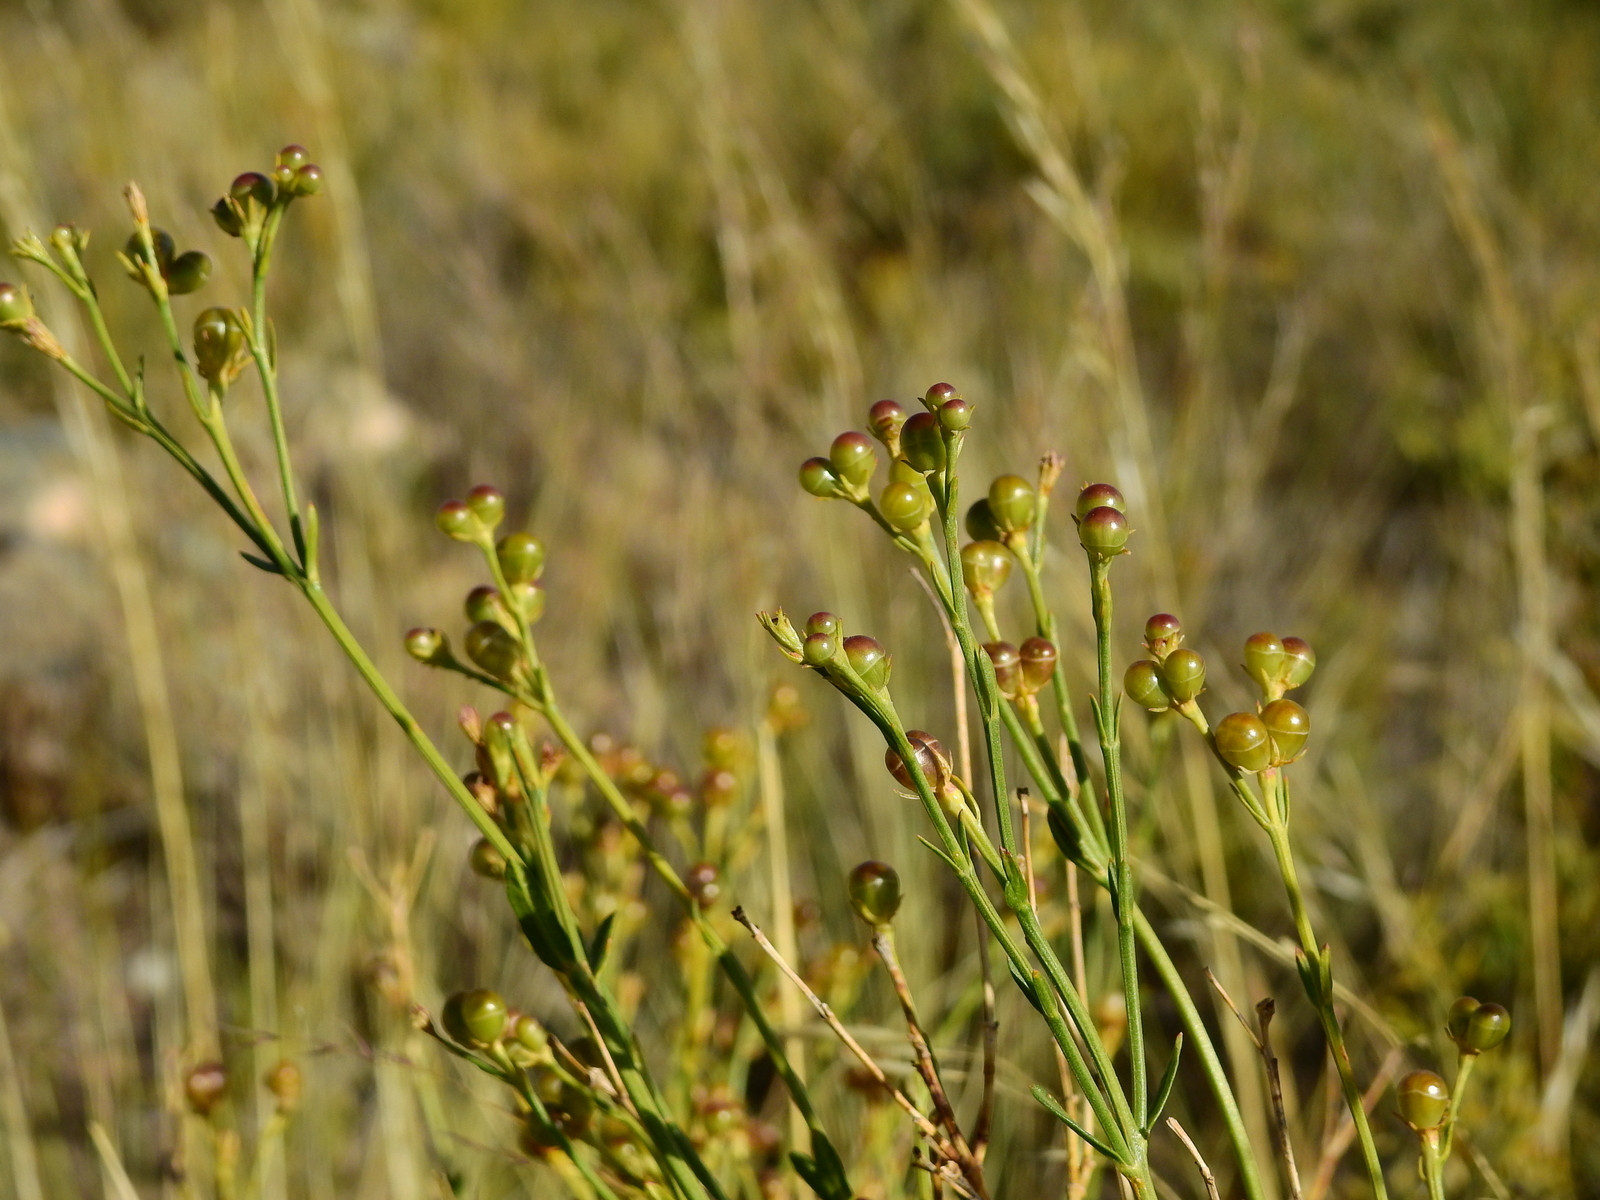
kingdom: Plantae
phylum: Tracheophyta
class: Magnoliopsida
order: Lamiales
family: Oleaceae
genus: Menodora
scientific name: Menodora decemfida
